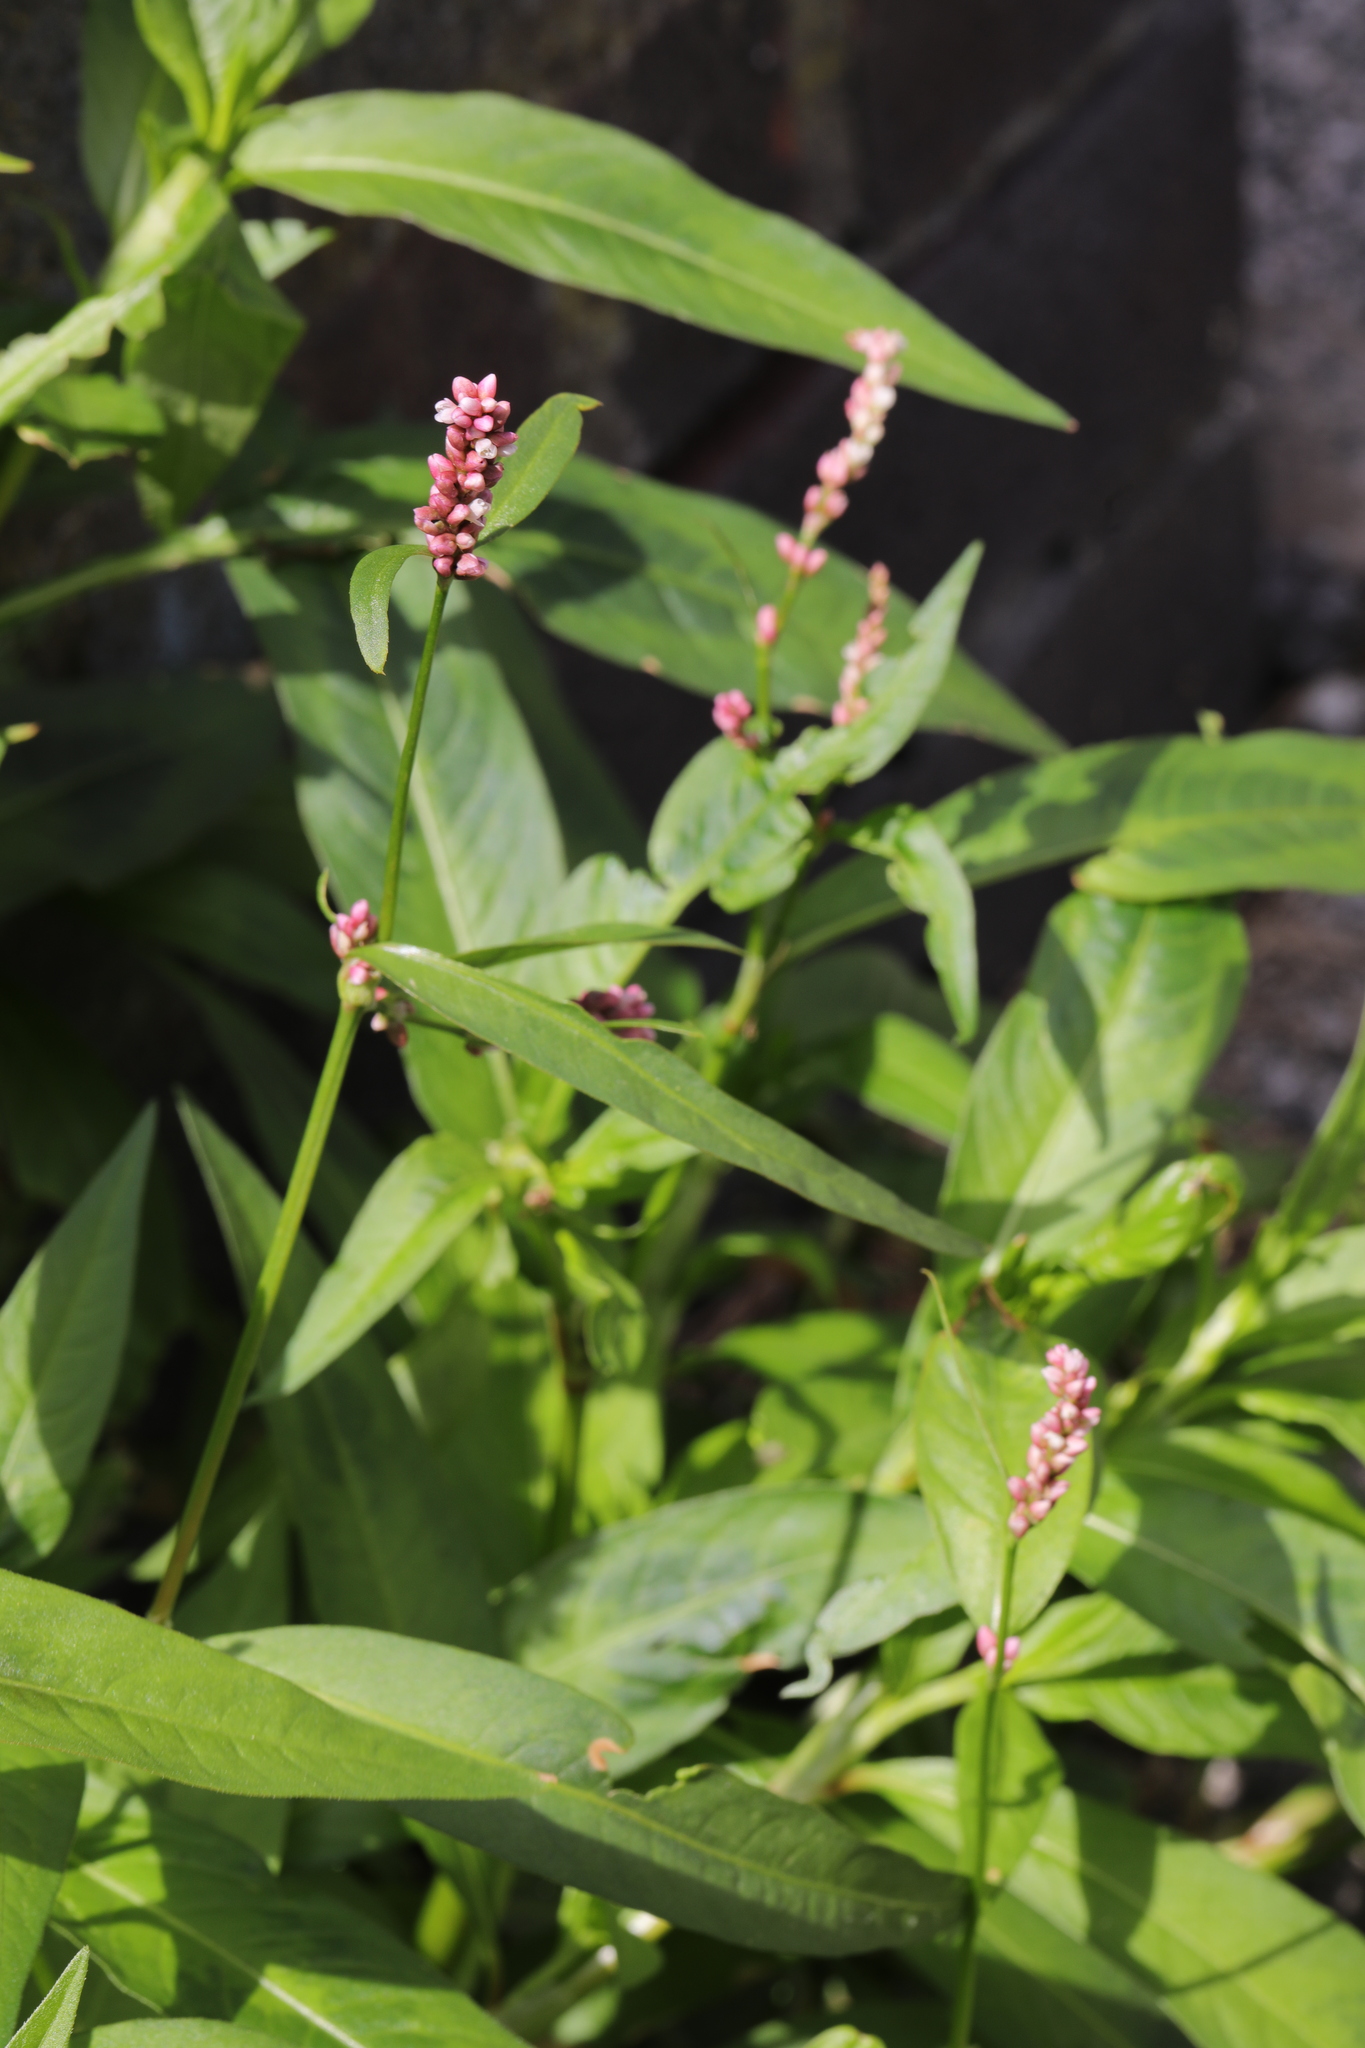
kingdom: Plantae
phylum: Tracheophyta
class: Magnoliopsida
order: Caryophyllales
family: Polygonaceae
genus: Persicaria
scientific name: Persicaria maculosa
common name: Redshank
